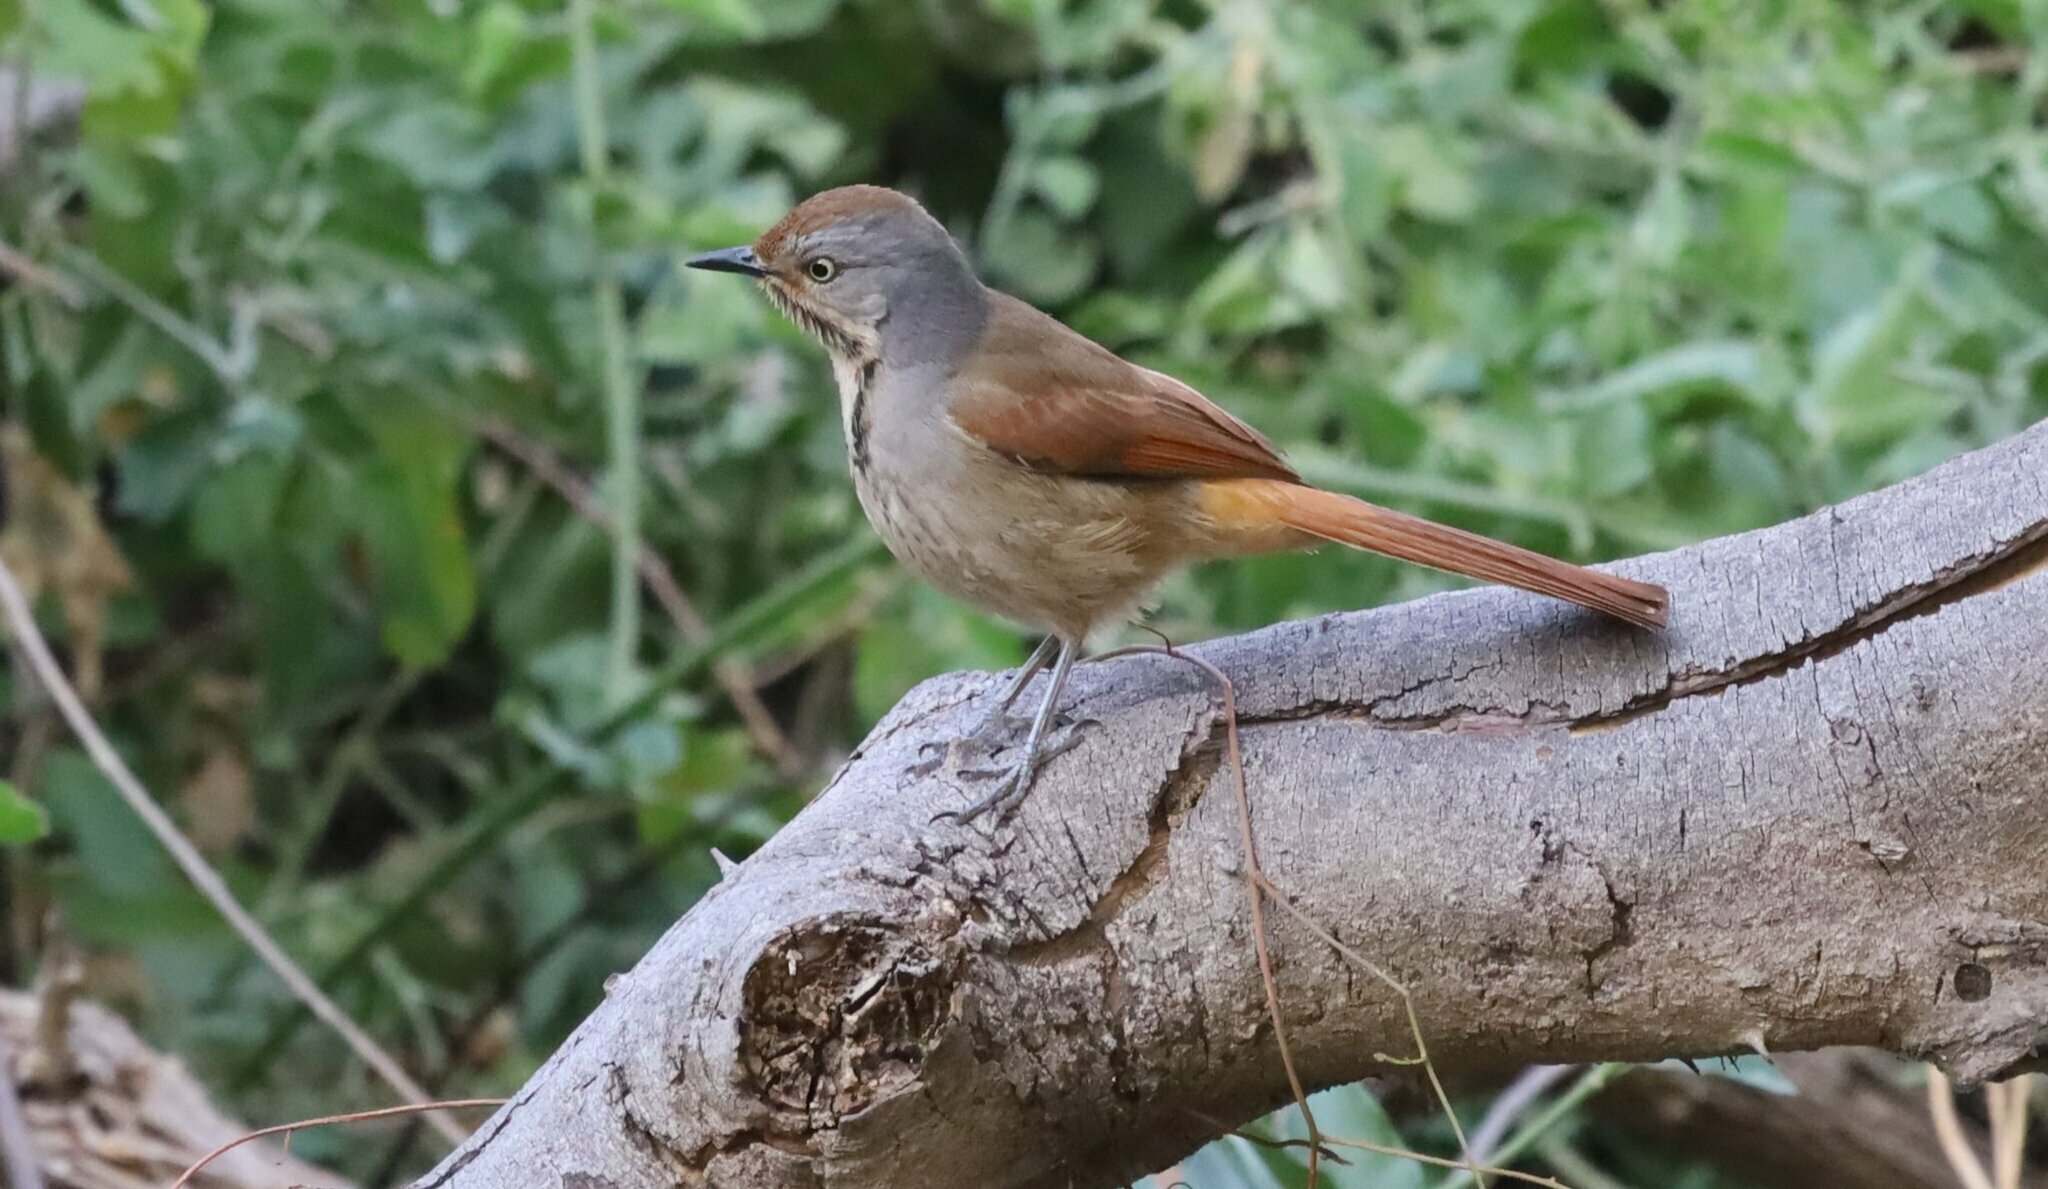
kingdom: Animalia
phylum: Chordata
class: Aves
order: Passeriformes
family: Muscicapidae
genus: Cichladusa
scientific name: Cichladusa arquata
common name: Collared palm thrush
